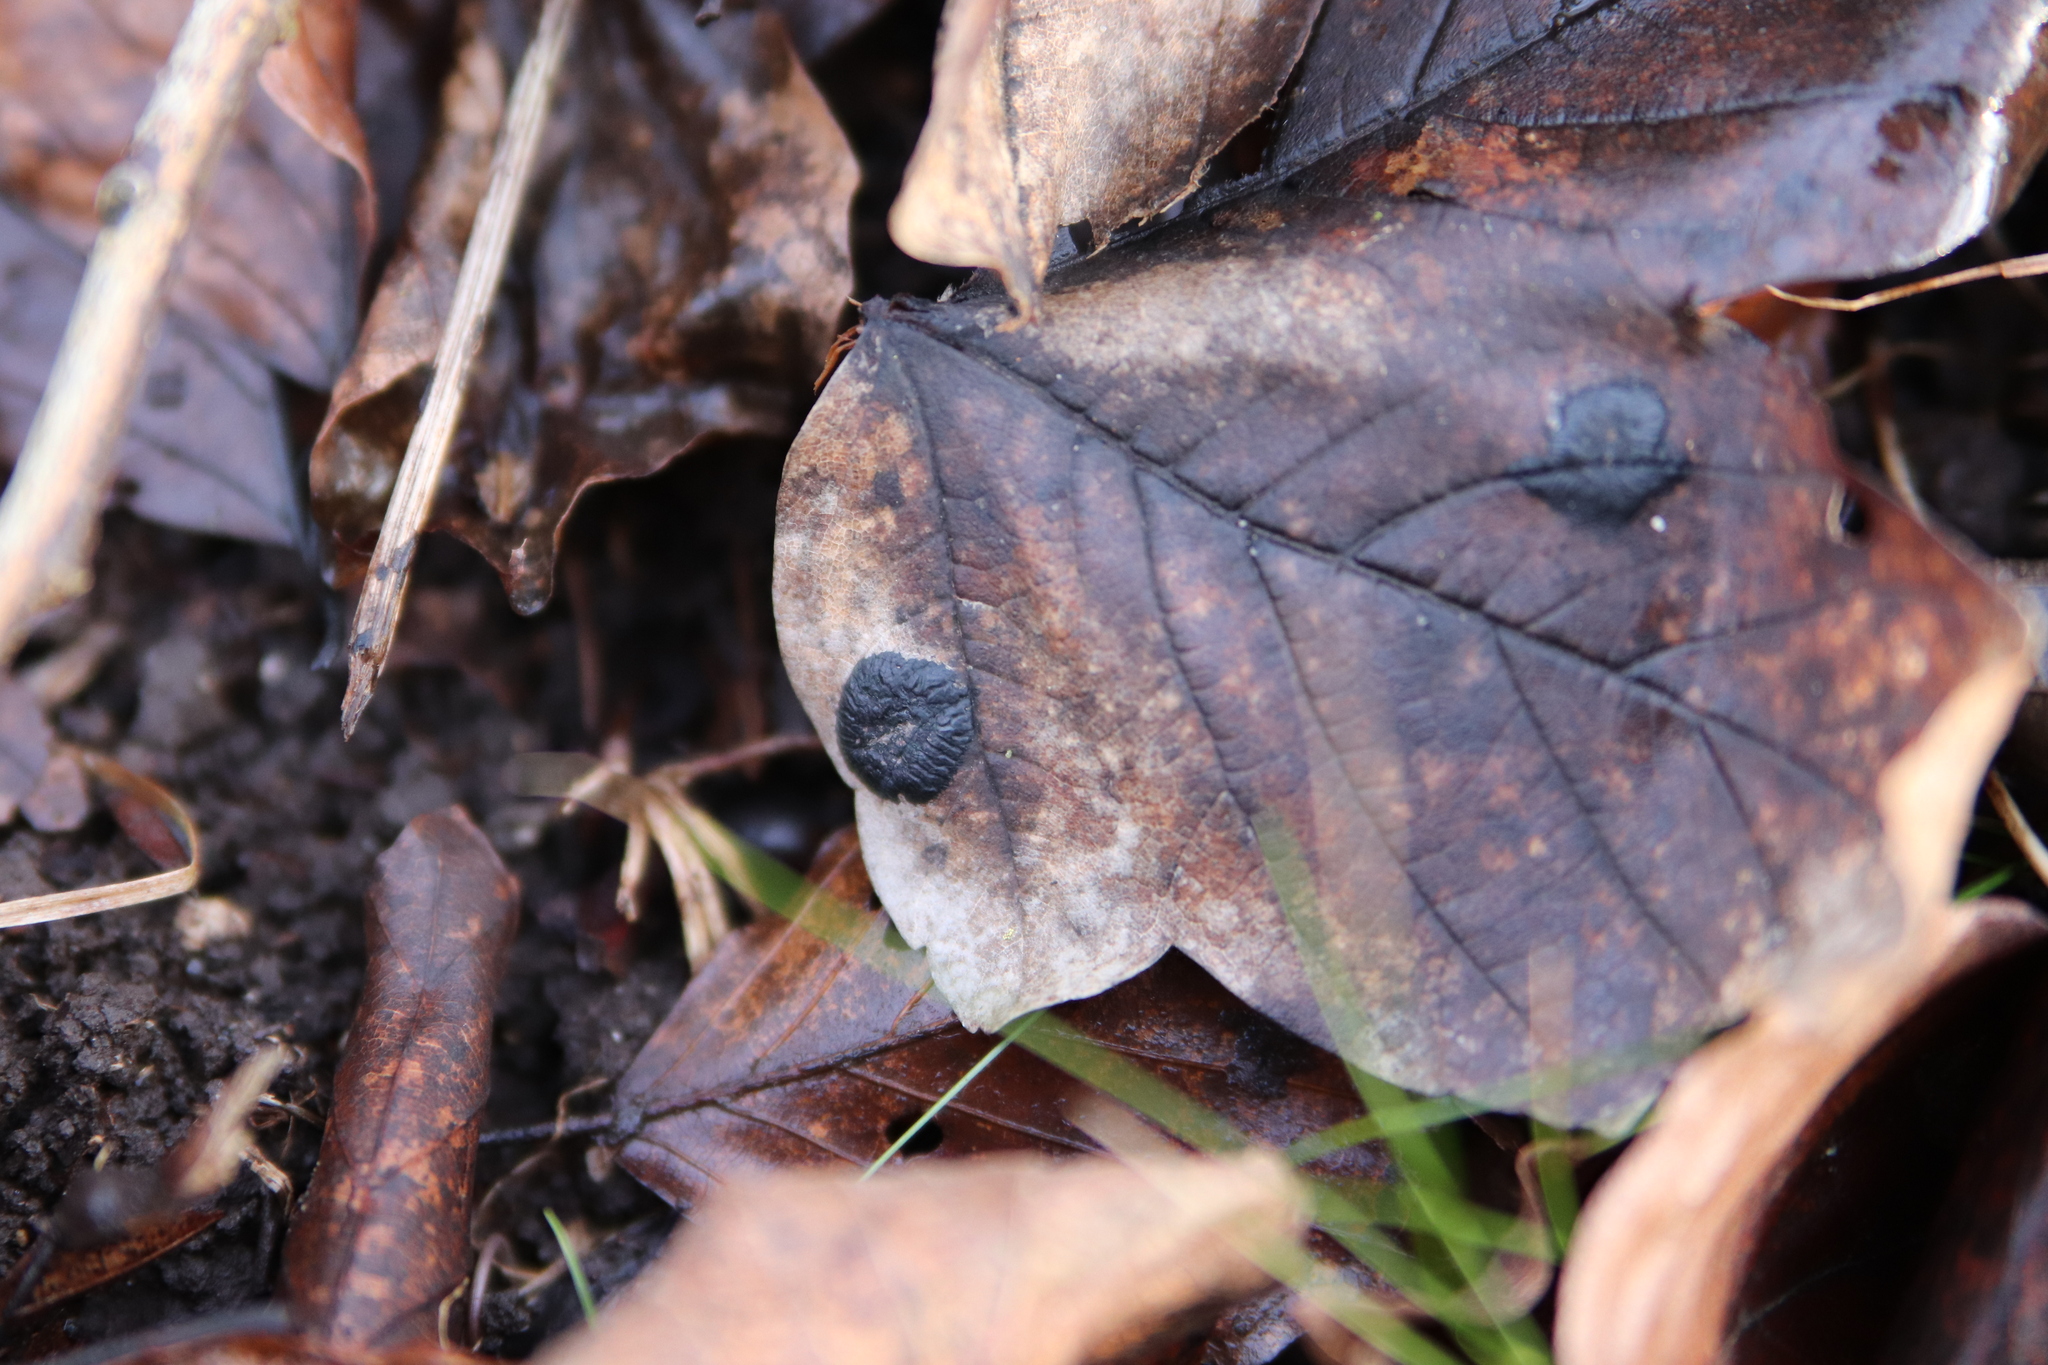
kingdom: Fungi
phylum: Ascomycota
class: Leotiomycetes
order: Rhytismatales
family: Rhytismataceae
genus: Rhytisma
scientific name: Rhytisma acerinum
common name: European tar spot
